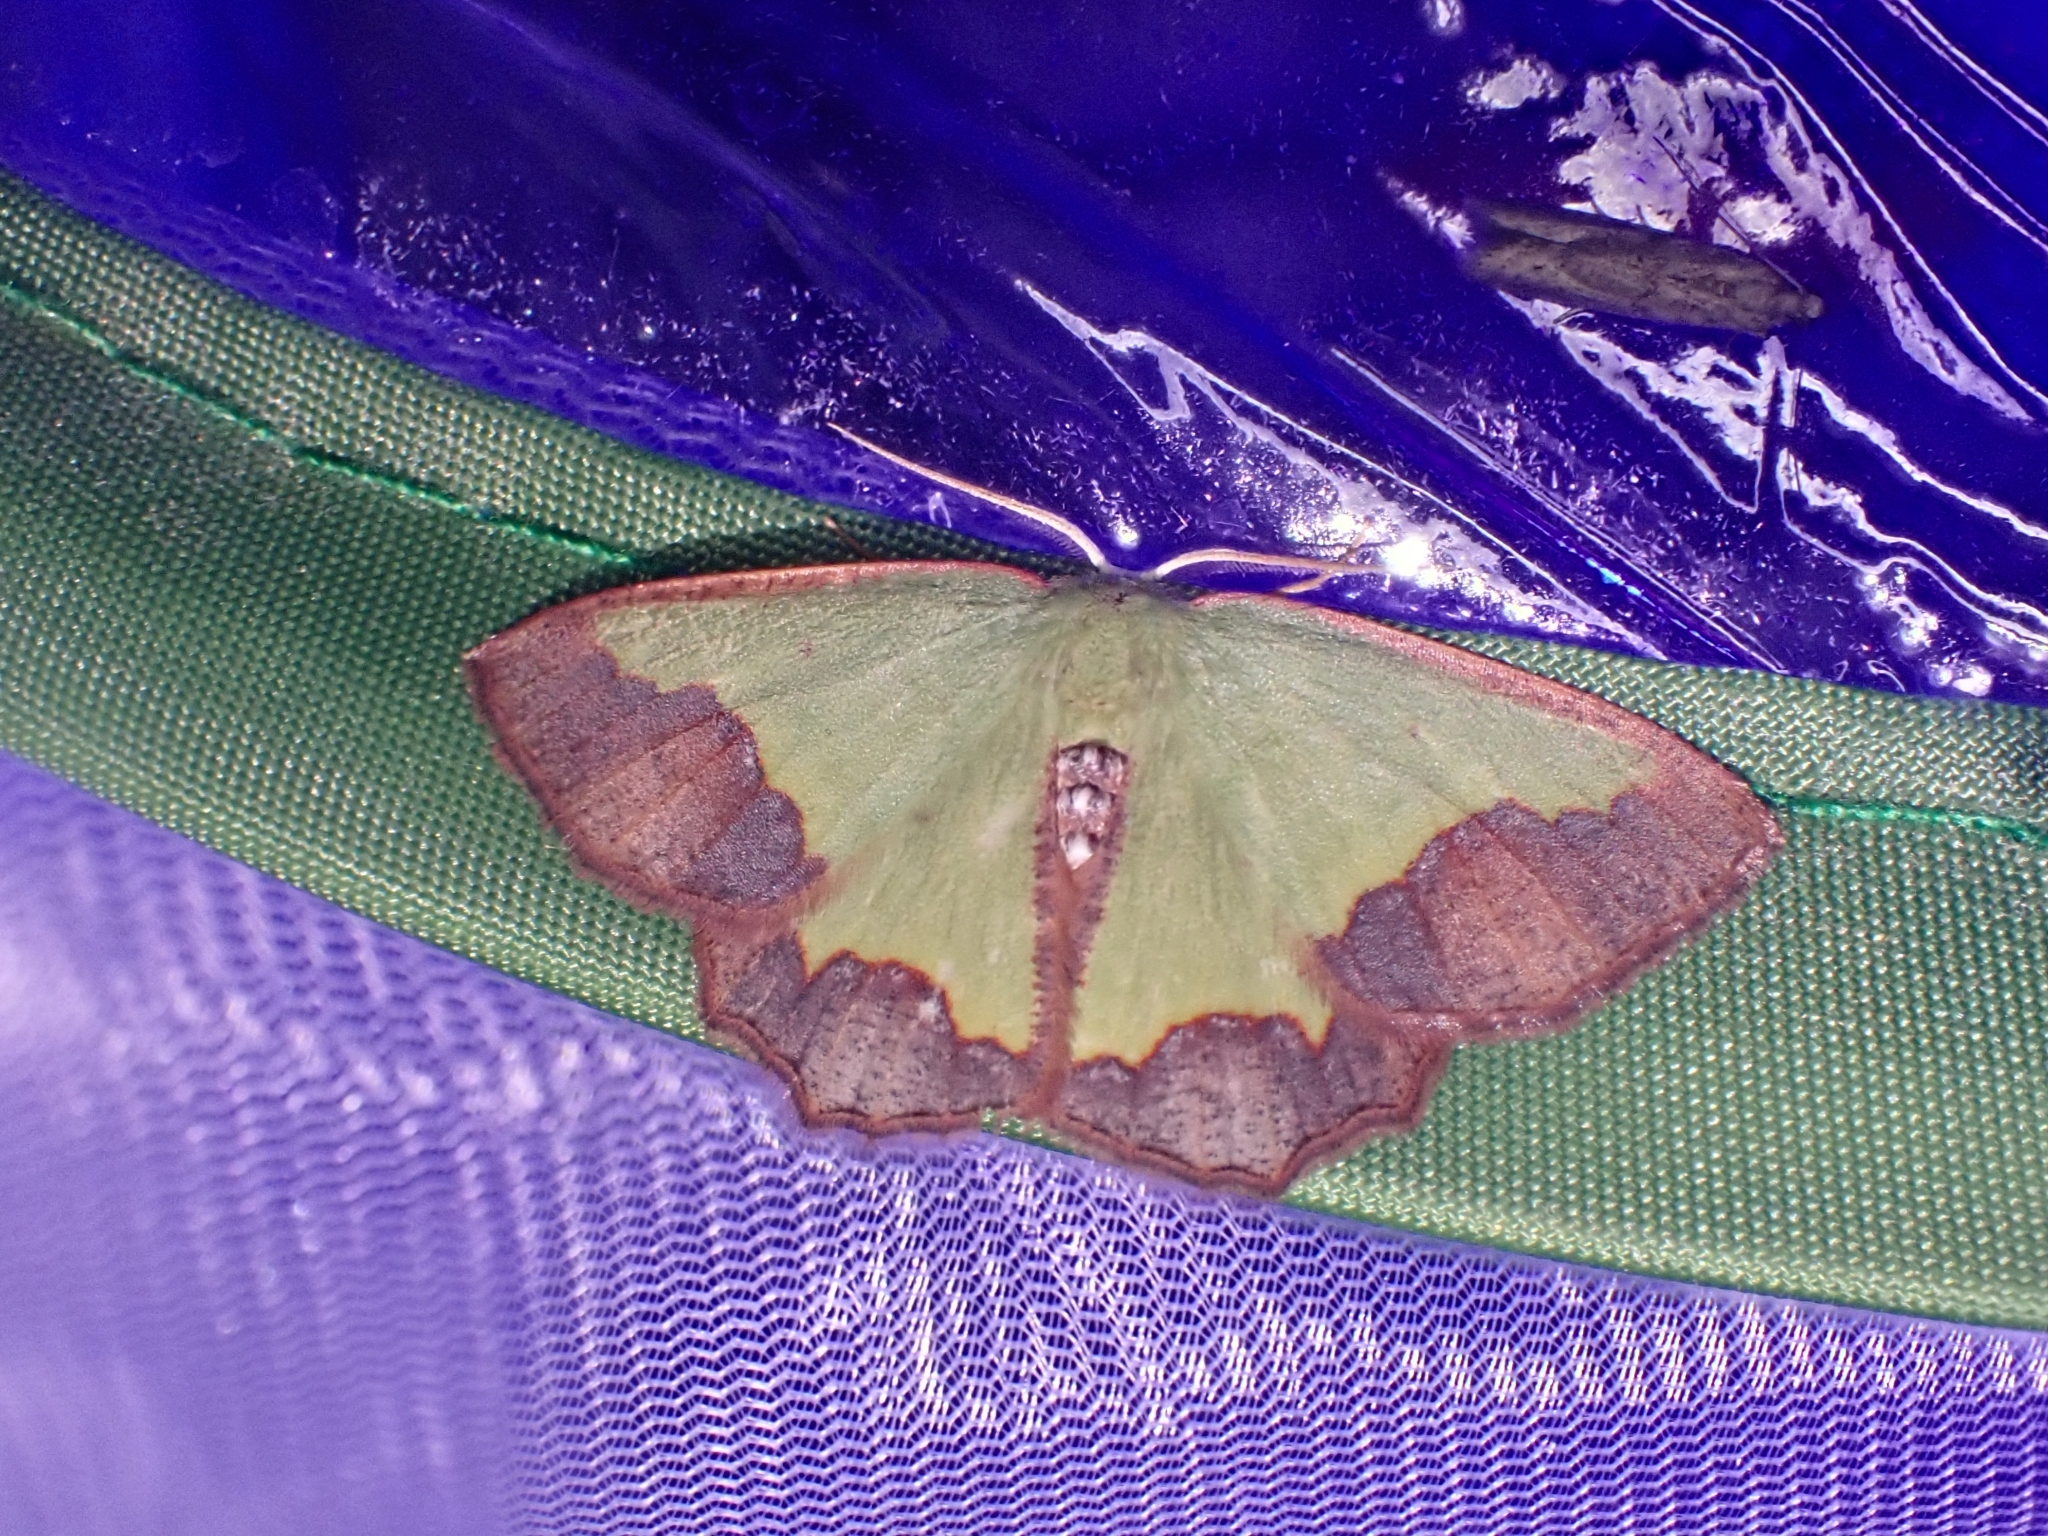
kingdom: Animalia
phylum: Arthropoda
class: Insecta
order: Lepidoptera
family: Geometridae
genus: Luashia
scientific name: Luashia zonata
